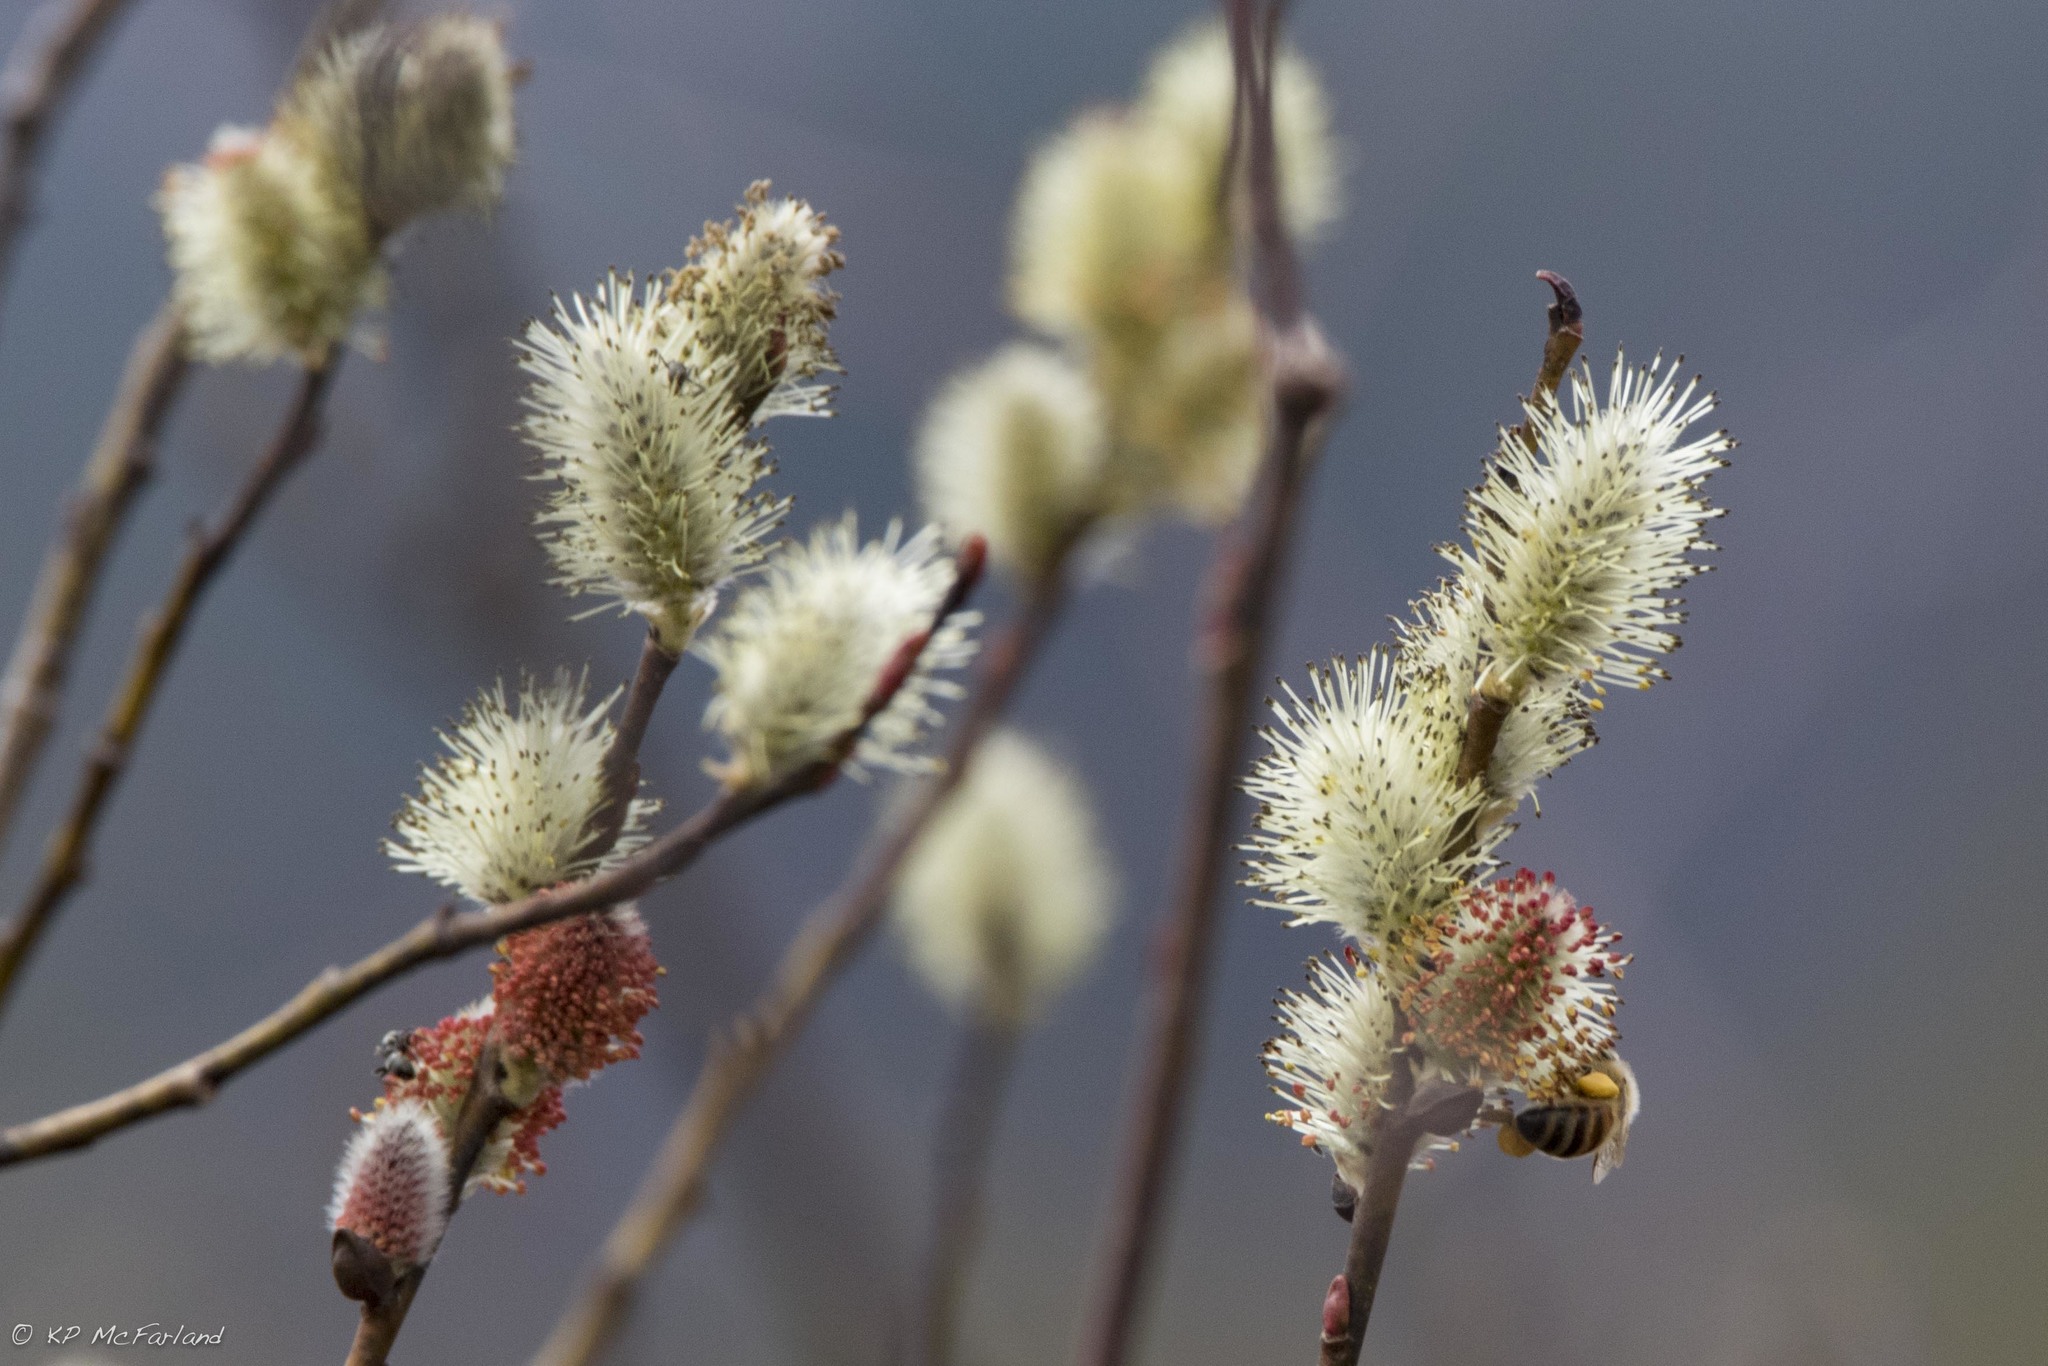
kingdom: Animalia
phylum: Arthropoda
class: Insecta
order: Hymenoptera
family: Apidae
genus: Apis
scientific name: Apis mellifera
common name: Honey bee
